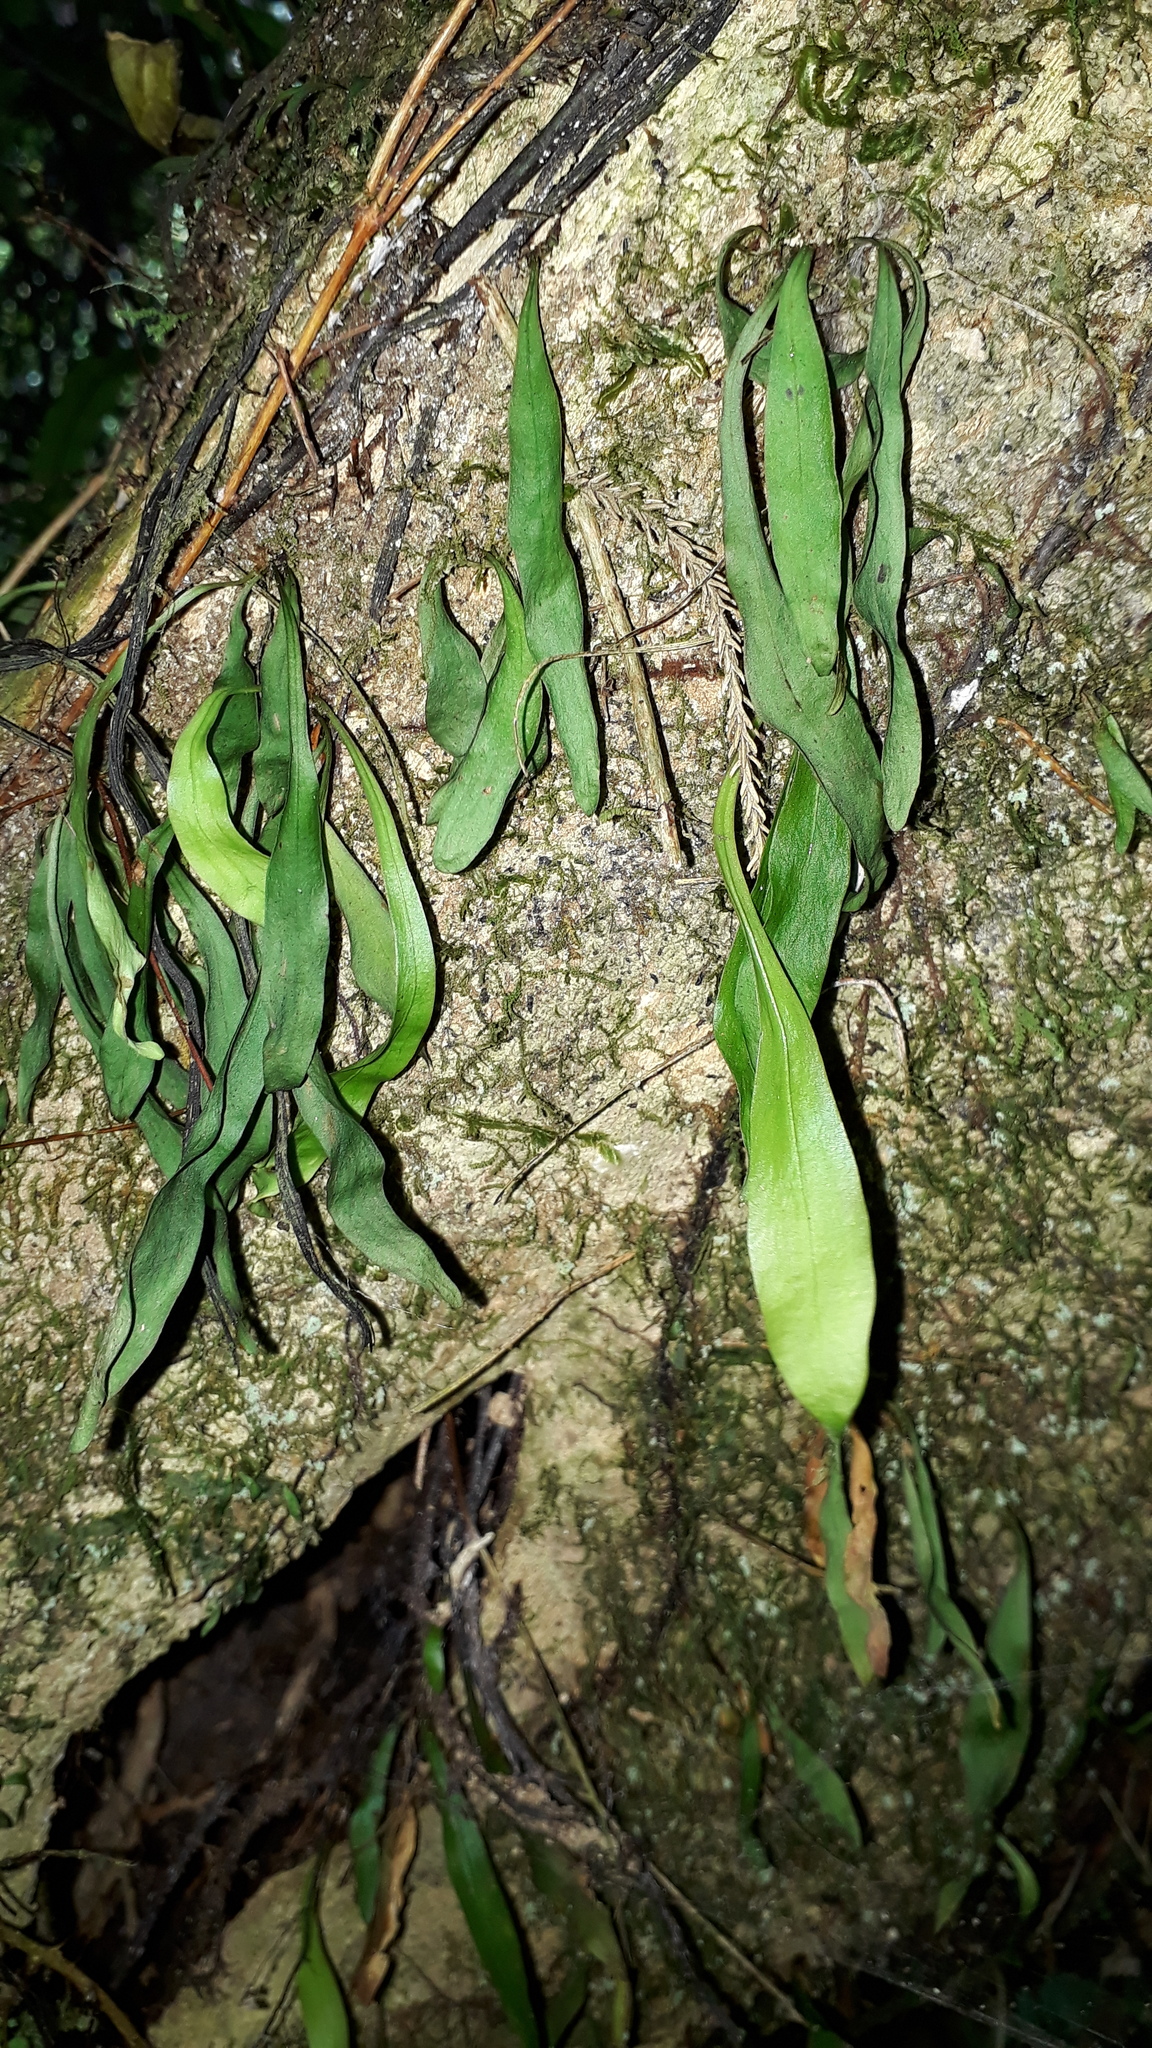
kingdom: Plantae
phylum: Tracheophyta
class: Polypodiopsida
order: Polypodiales
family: Polypodiaceae
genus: Loxogramme
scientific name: Loxogramme dictyopteris
